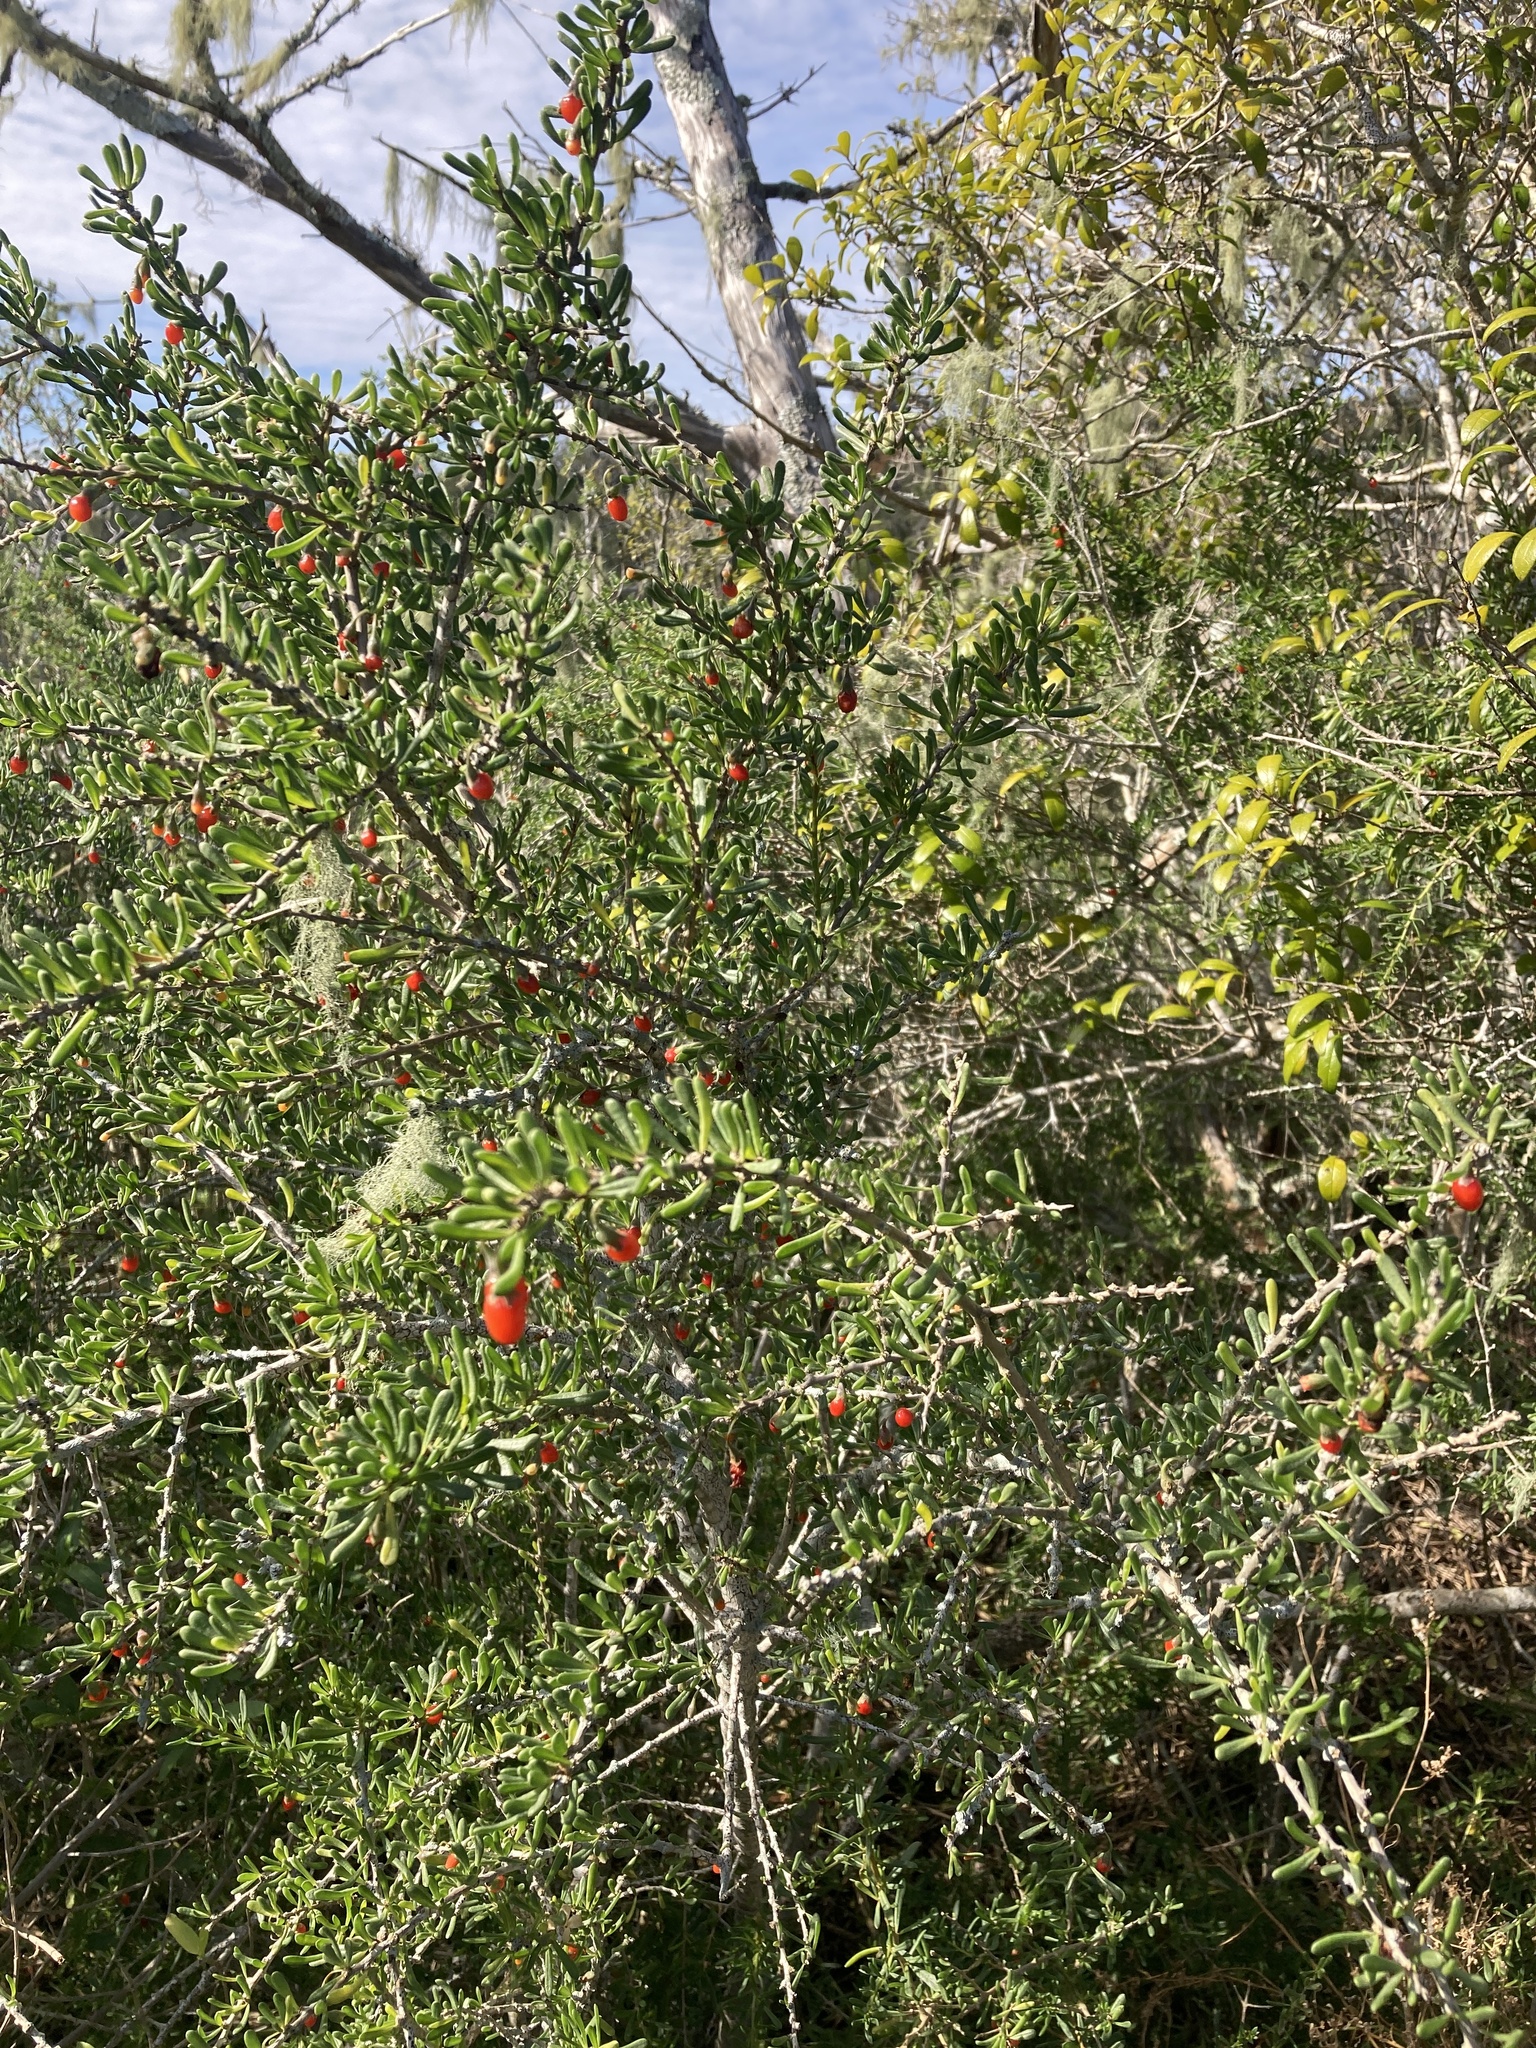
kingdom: Plantae
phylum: Tracheophyta
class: Magnoliopsida
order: Solanales
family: Solanaceae
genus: Lycium
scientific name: Lycium carolinianum
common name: Christmasberry
